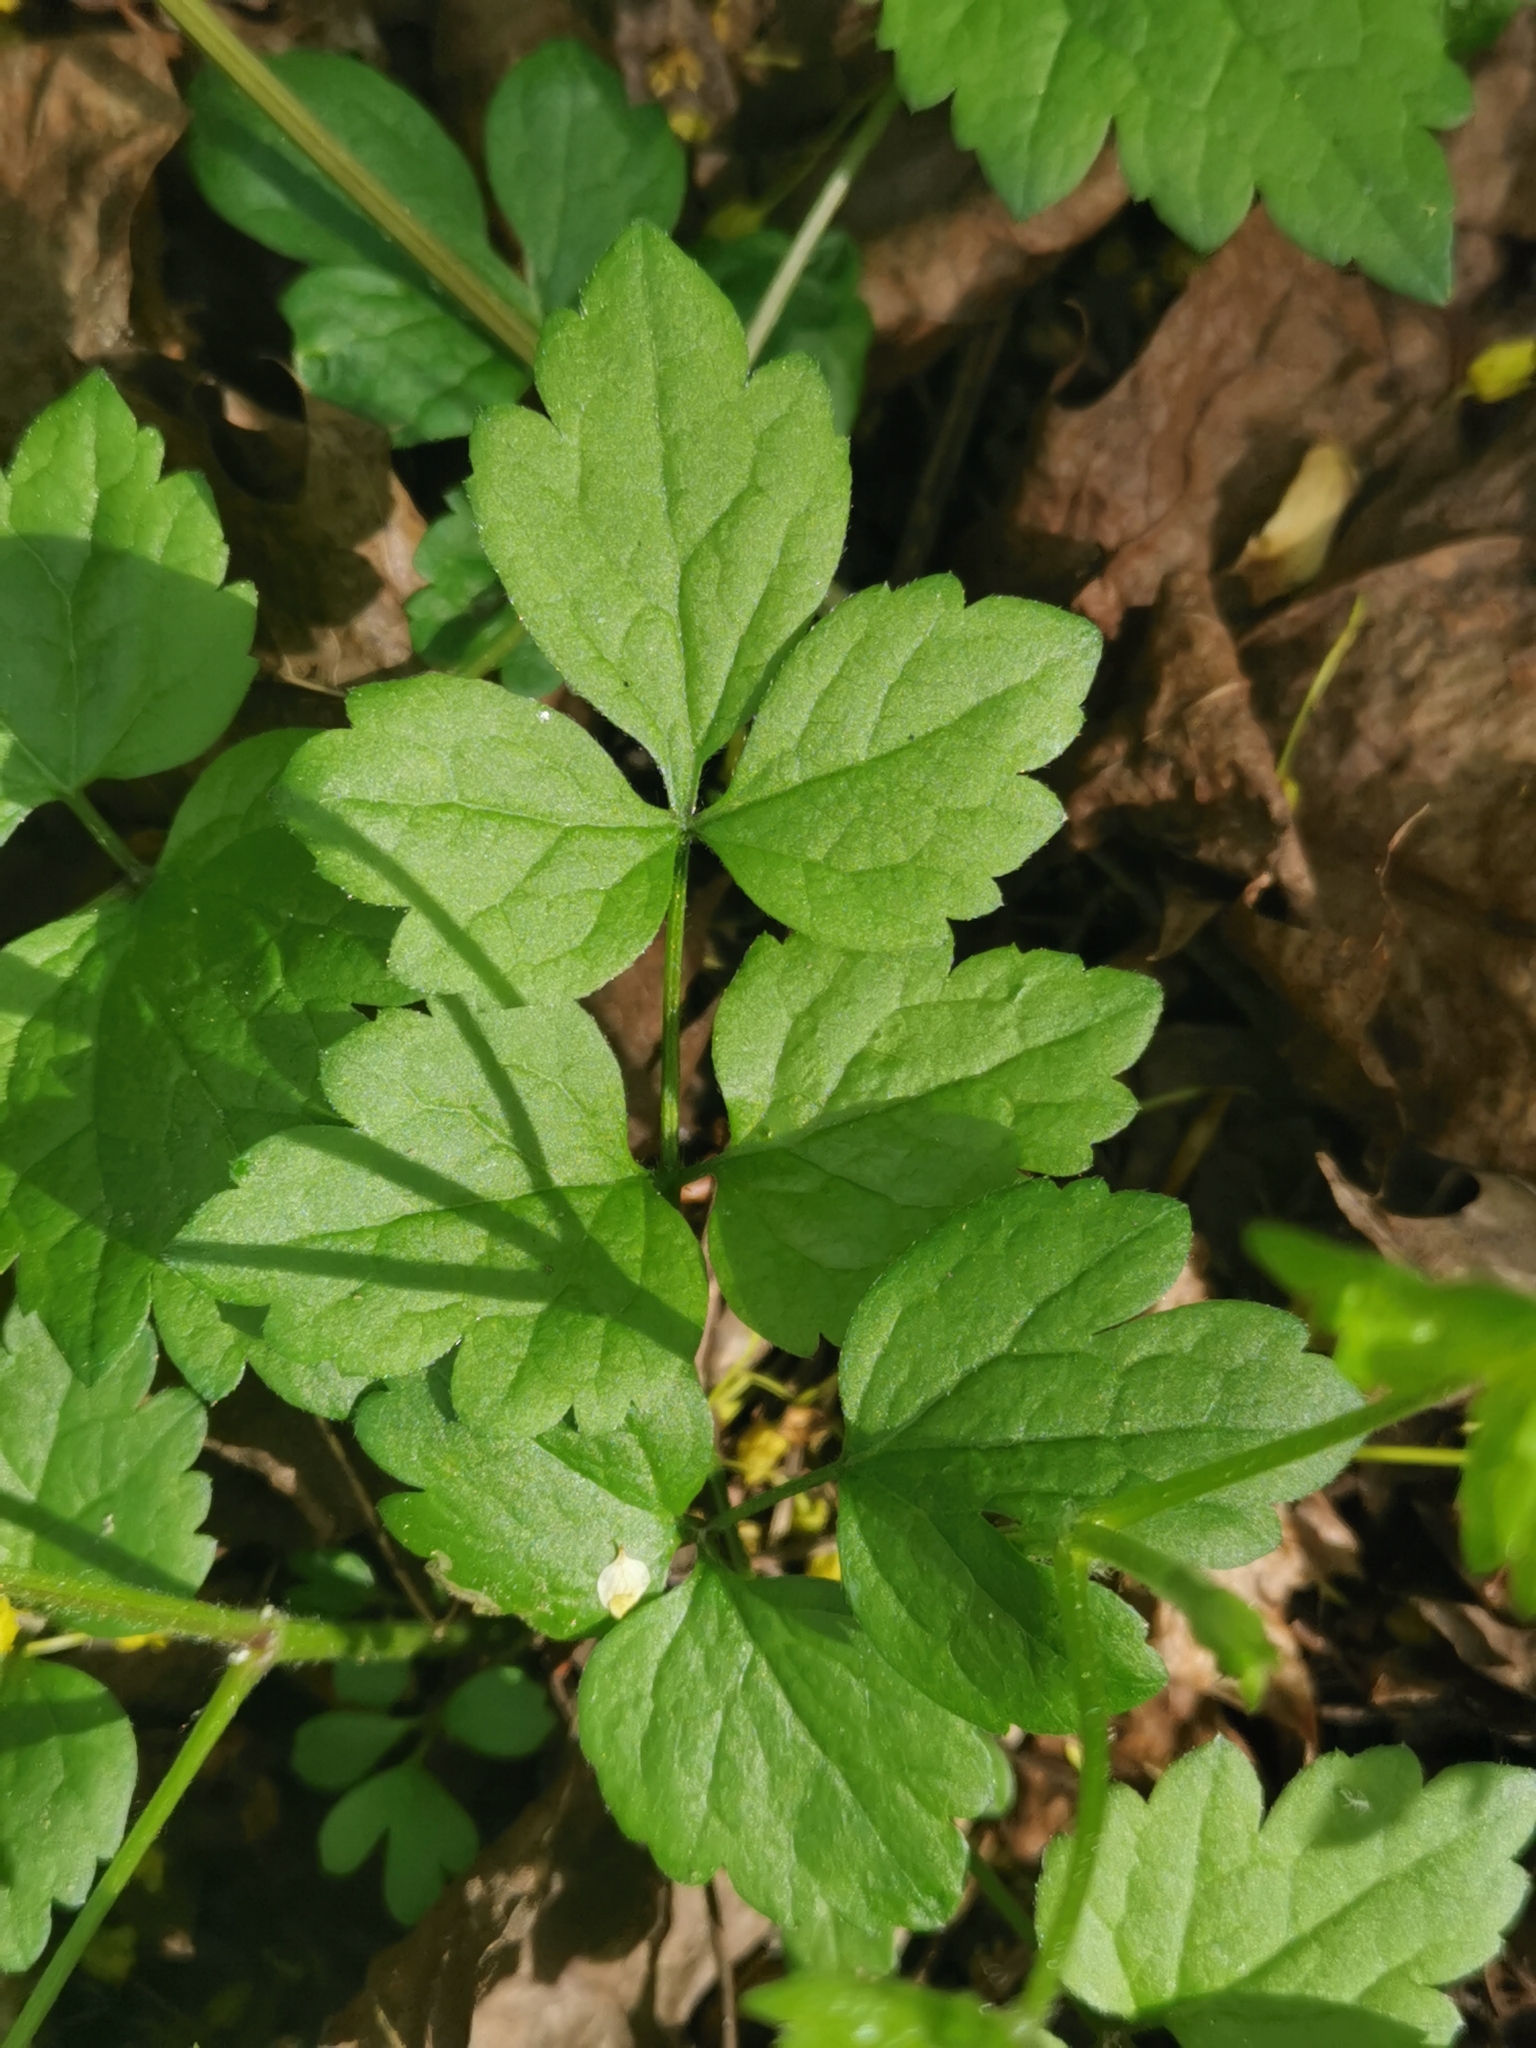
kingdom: Plantae
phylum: Tracheophyta
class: Magnoliopsida
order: Ranunculales
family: Ranunculaceae
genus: Clematis
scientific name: Clematis vitalba
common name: Evergreen clematis
